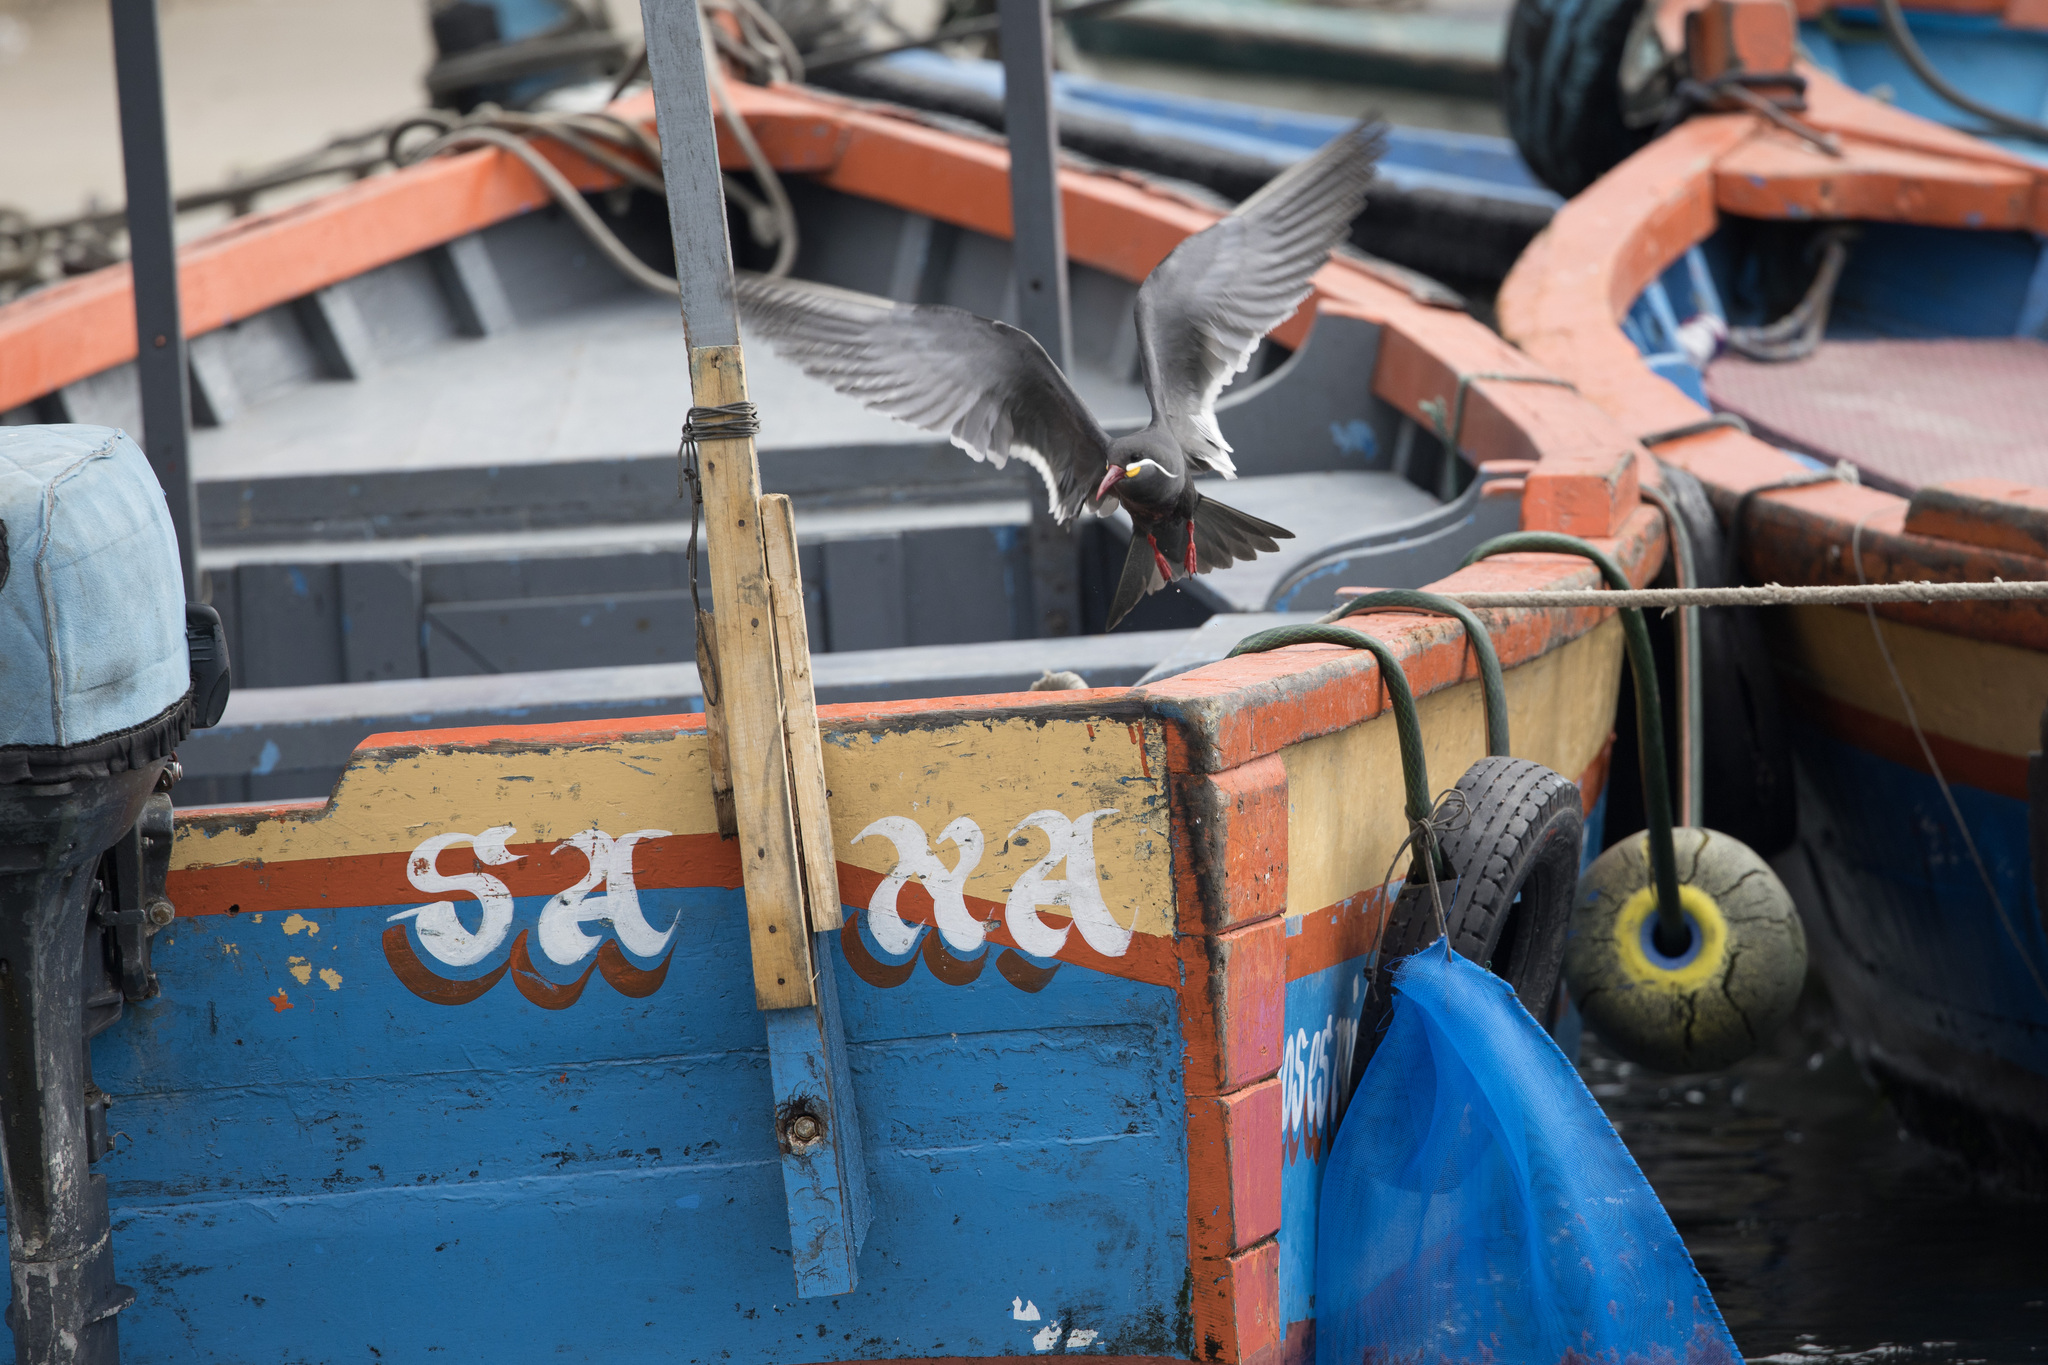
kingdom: Animalia
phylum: Chordata
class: Aves
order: Charadriiformes
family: Laridae
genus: Larosterna
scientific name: Larosterna inca
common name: Inca tern
